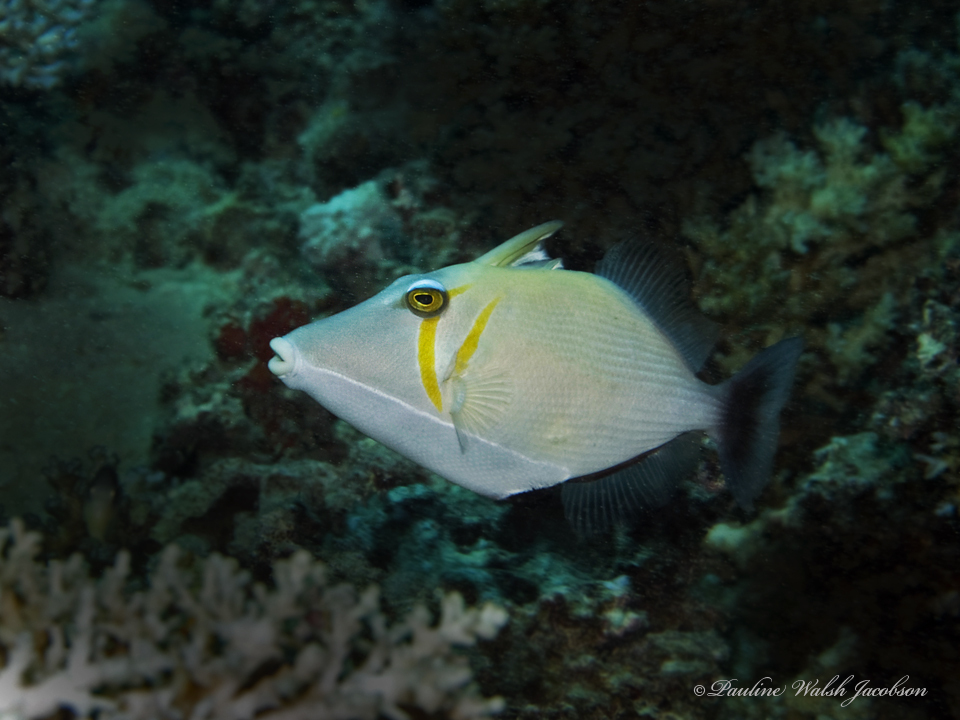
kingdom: Animalia
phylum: Chordata
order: Tetraodontiformes
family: Balistidae
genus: Sufflamen
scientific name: Sufflamen bursa
